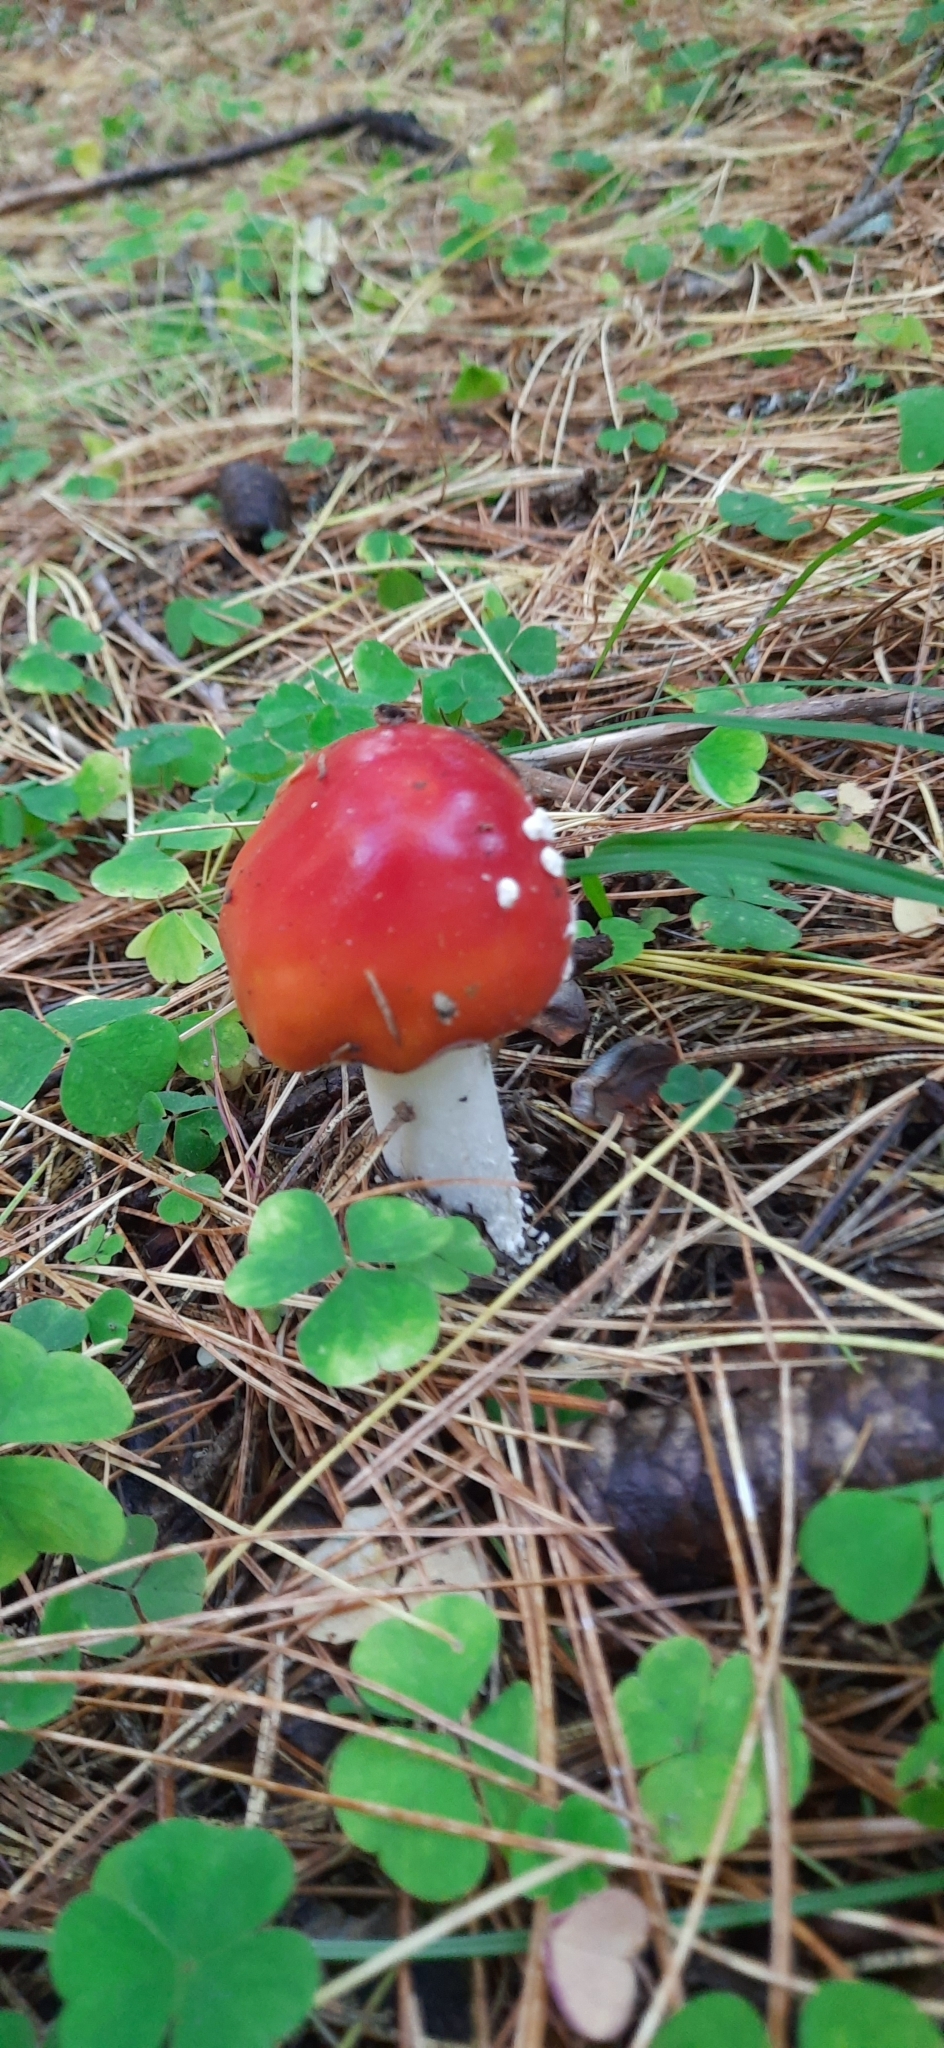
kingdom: Fungi
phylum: Basidiomycota
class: Agaricomycetes
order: Agaricales
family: Amanitaceae
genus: Amanita
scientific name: Amanita muscaria
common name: Fly agaric
